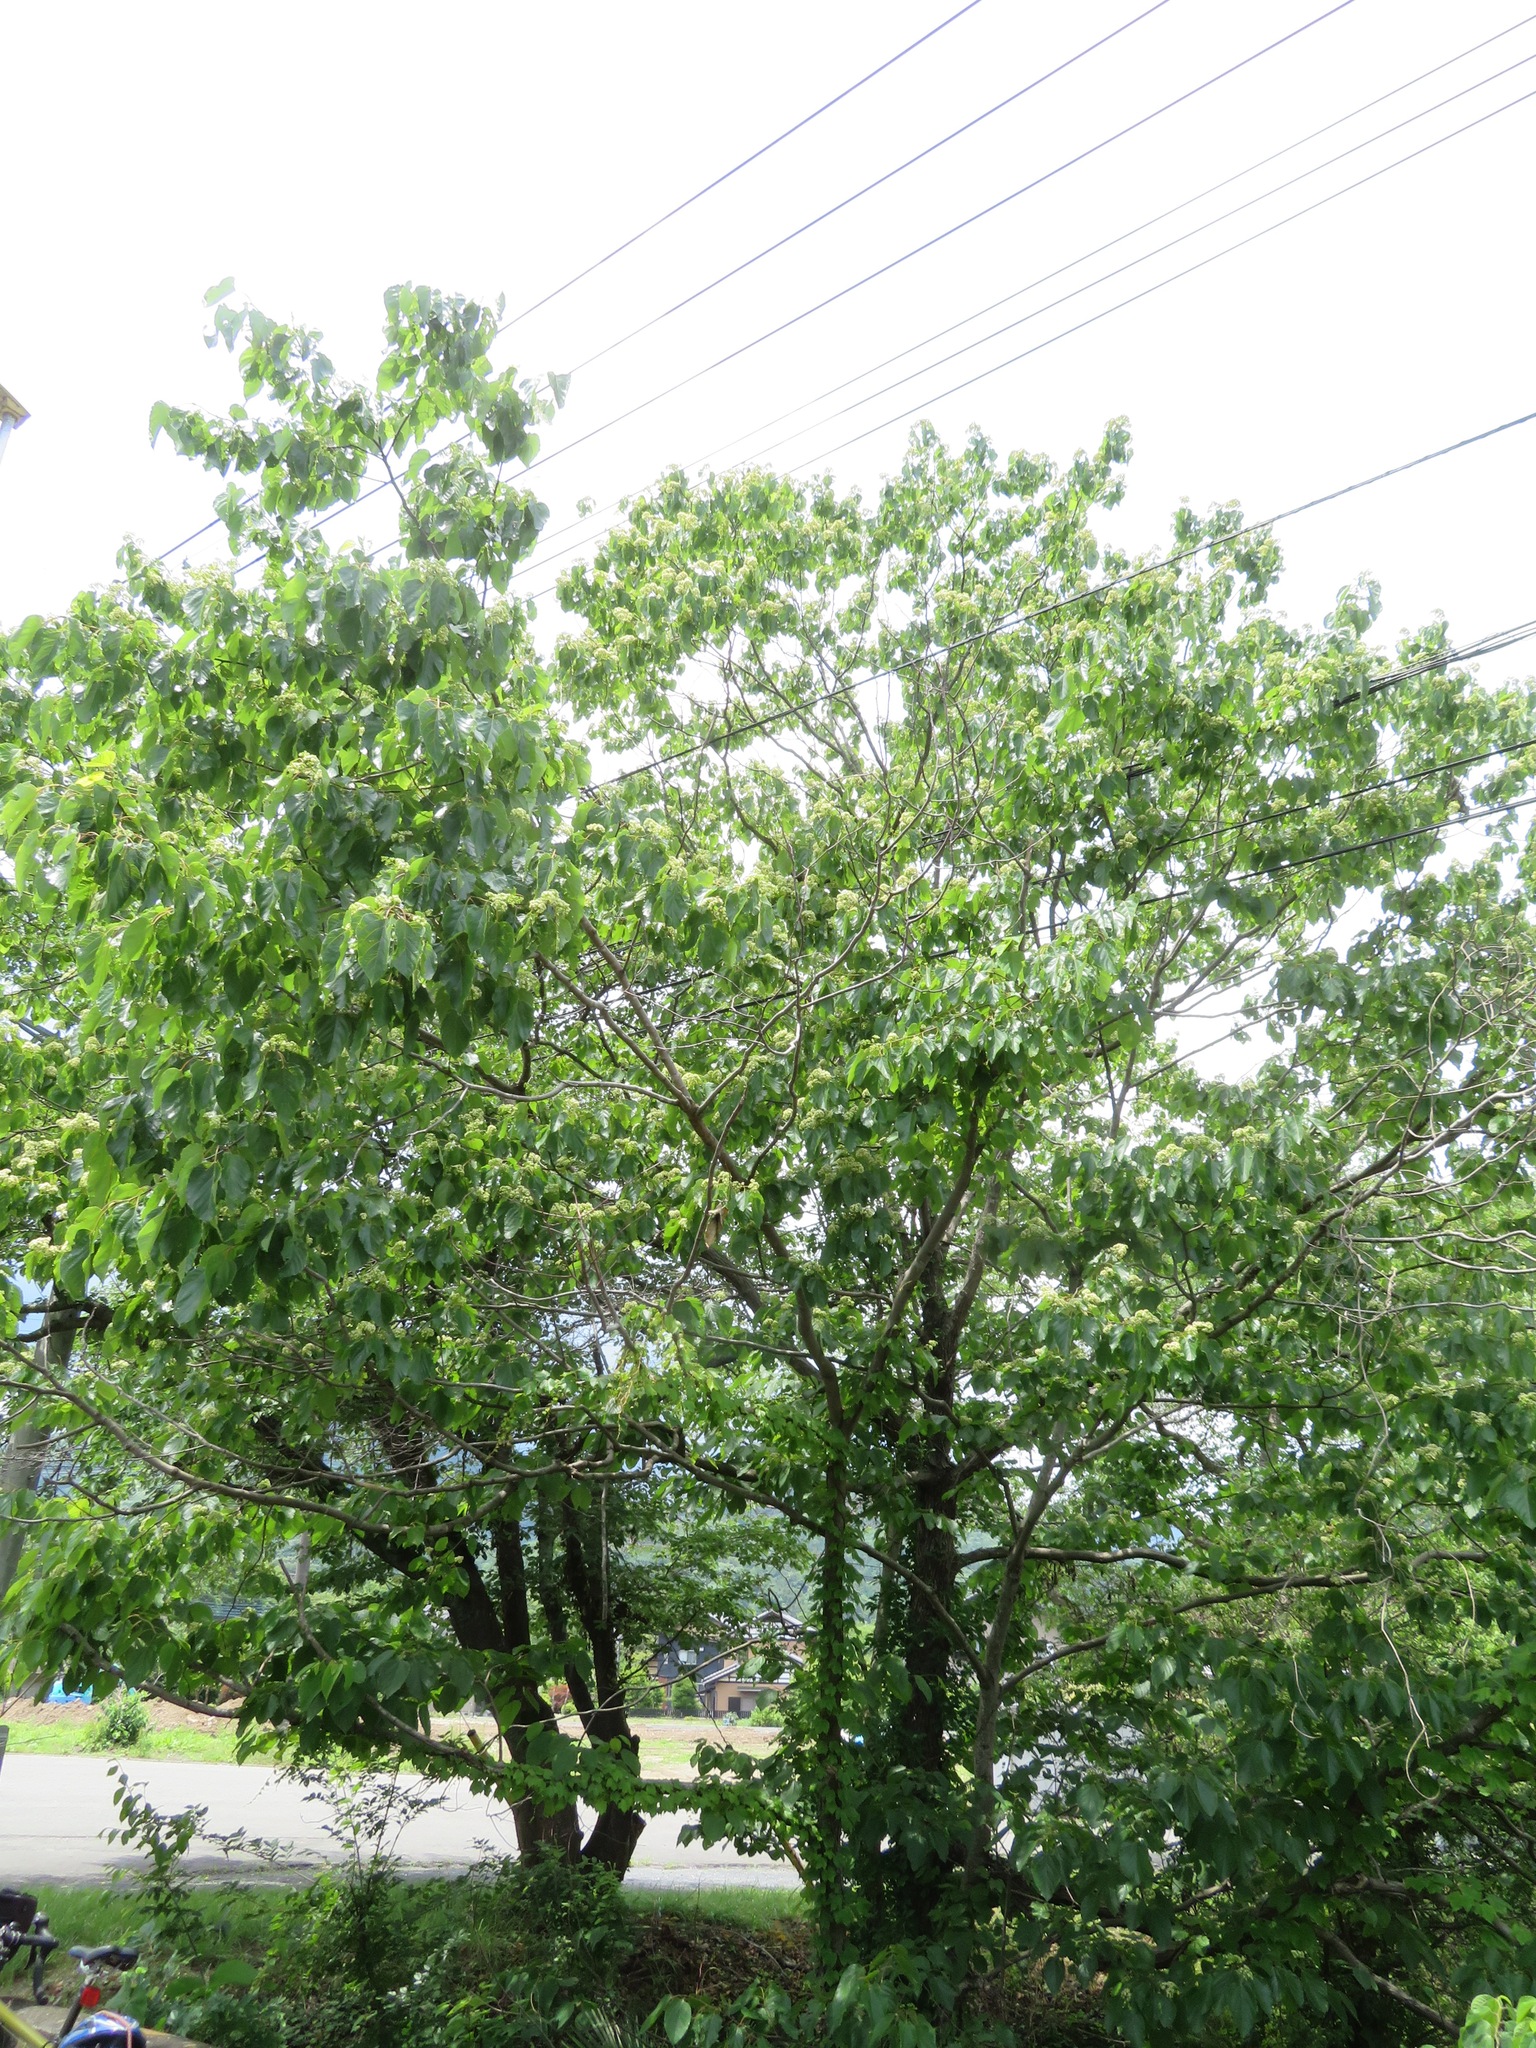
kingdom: Plantae
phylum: Tracheophyta
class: Magnoliopsida
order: Rosales
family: Rhamnaceae
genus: Hovenia
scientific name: Hovenia dulcis
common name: Japanese raisintree
